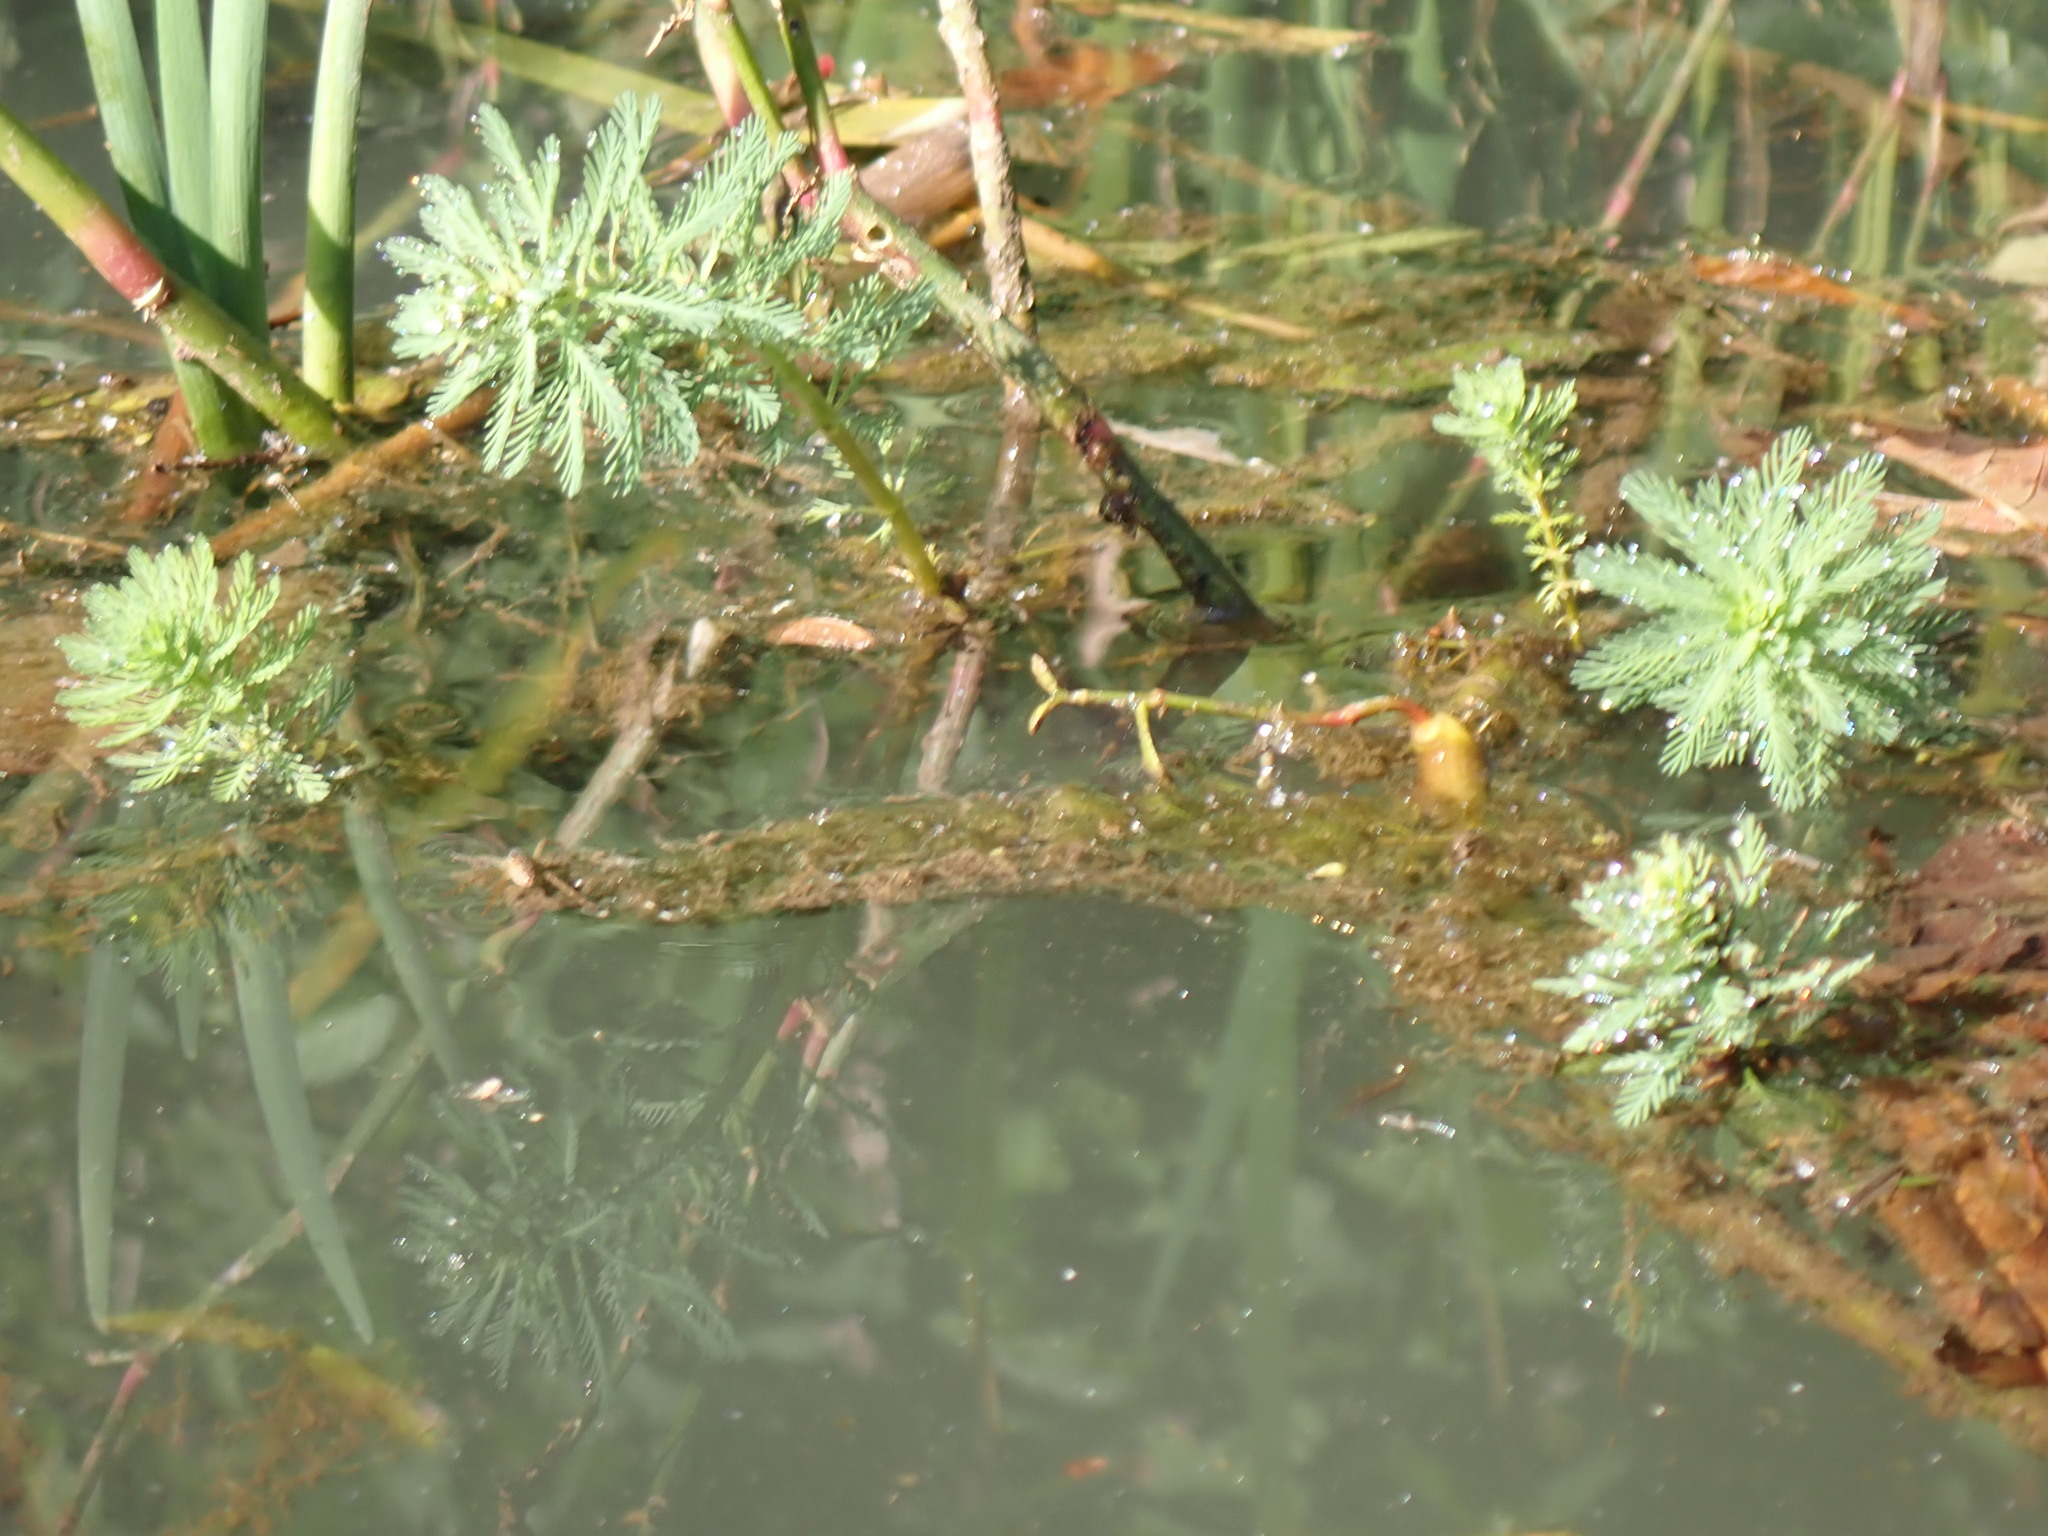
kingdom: Plantae
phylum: Tracheophyta
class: Magnoliopsida
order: Saxifragales
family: Haloragaceae
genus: Myriophyllum
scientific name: Myriophyllum aquaticum
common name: Parrot's feather
